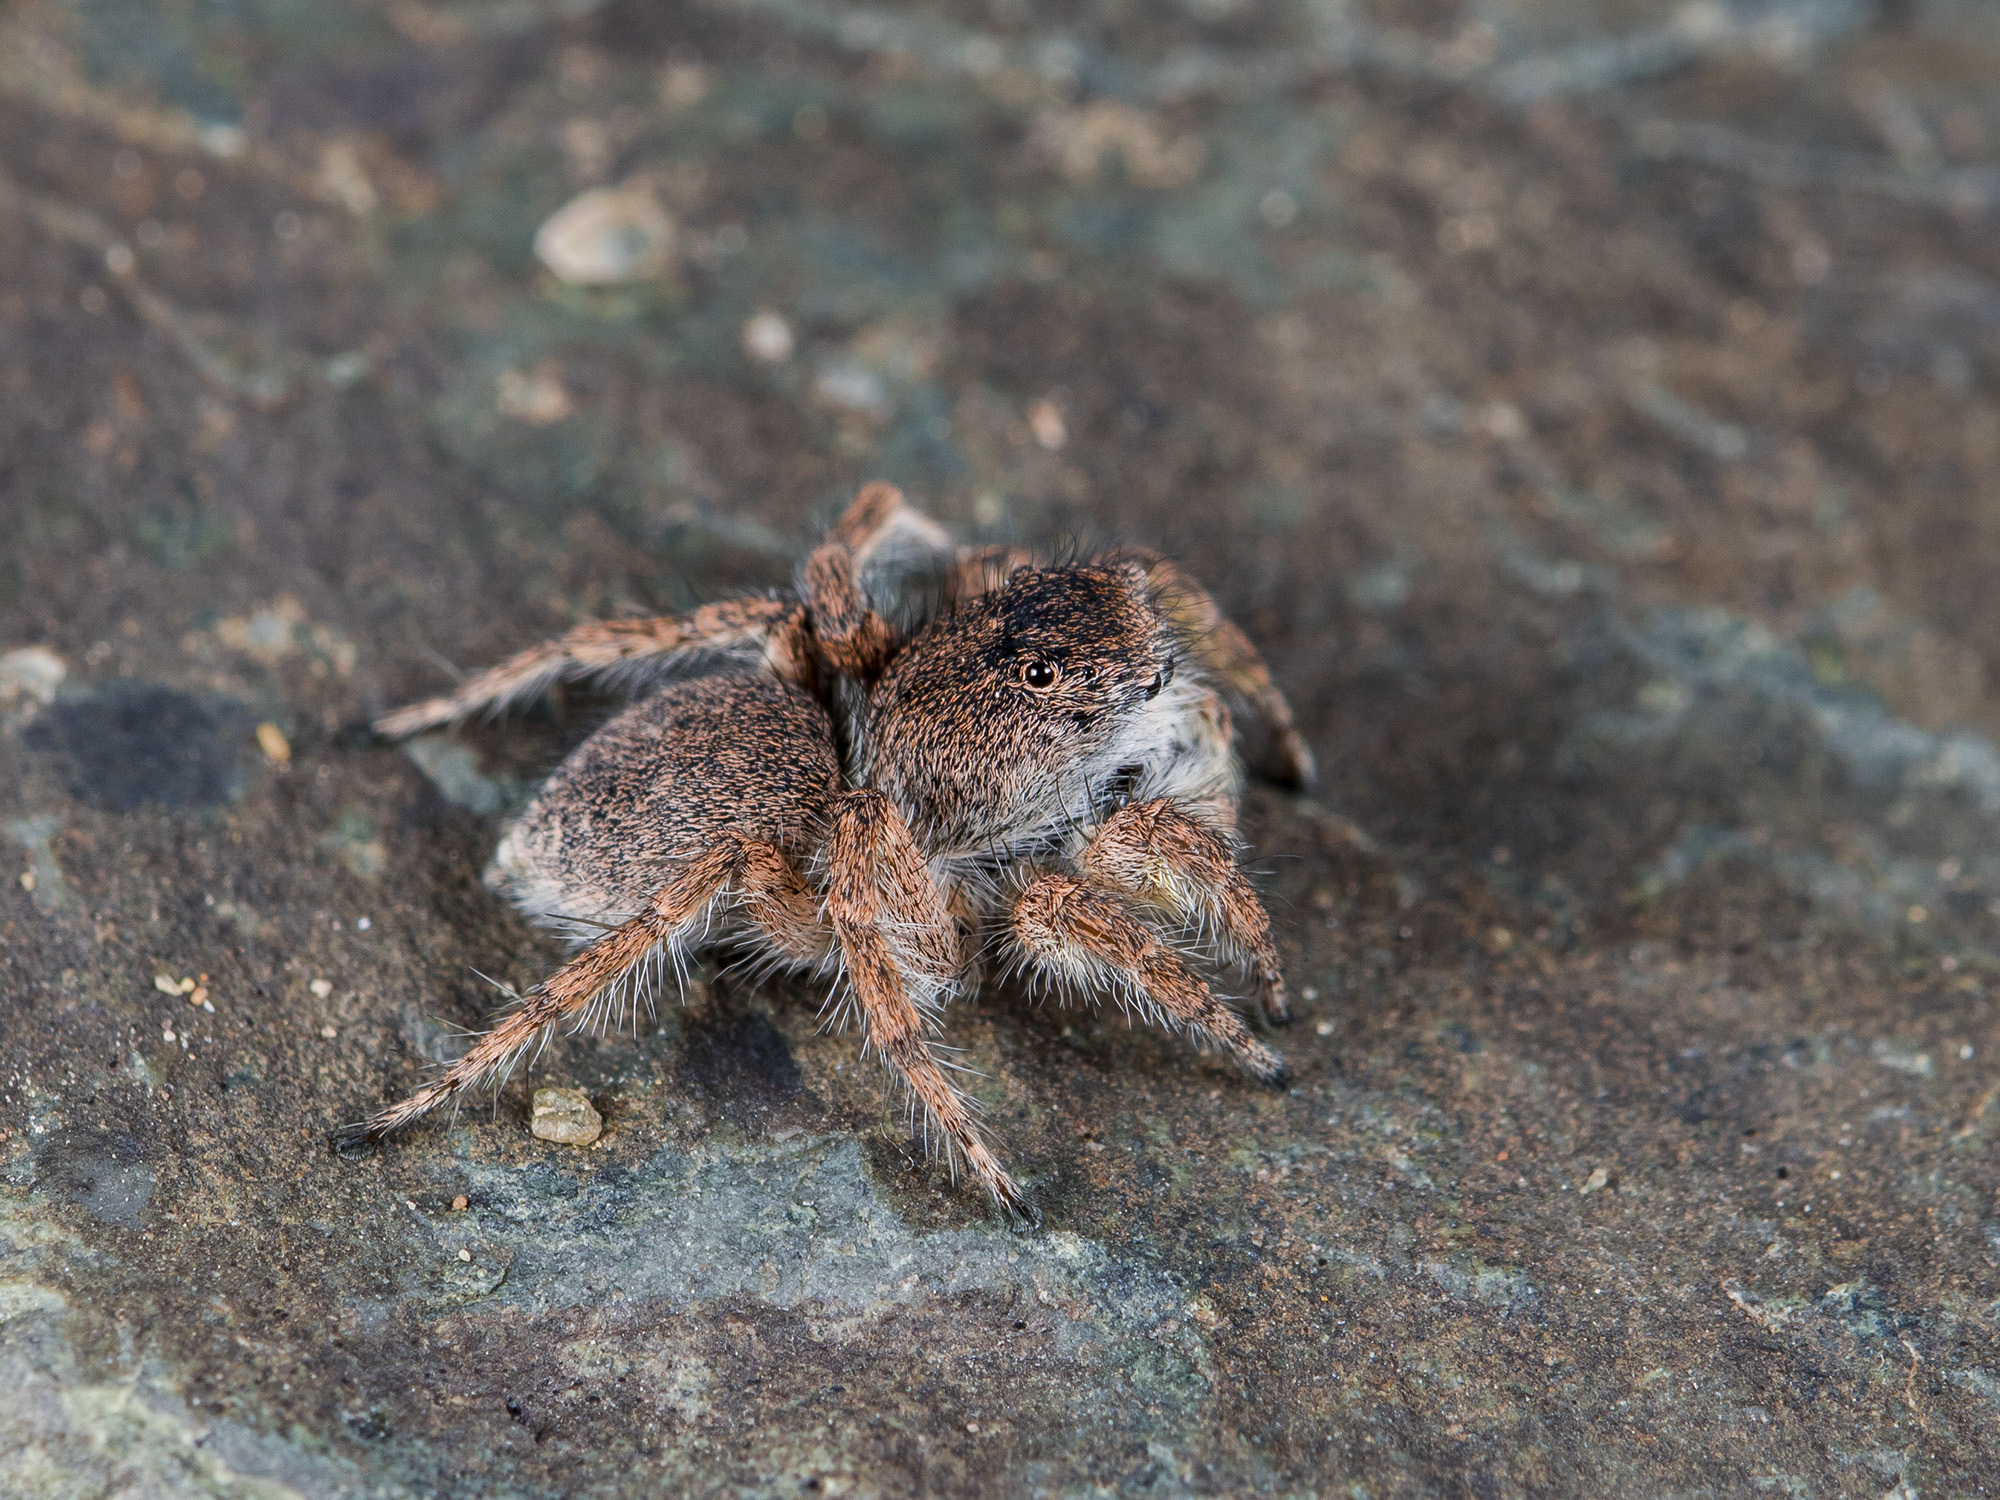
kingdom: Animalia
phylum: Arthropoda
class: Arachnida
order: Araneae
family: Salticidae
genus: Aelurillus
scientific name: Aelurillus dubatolovi
